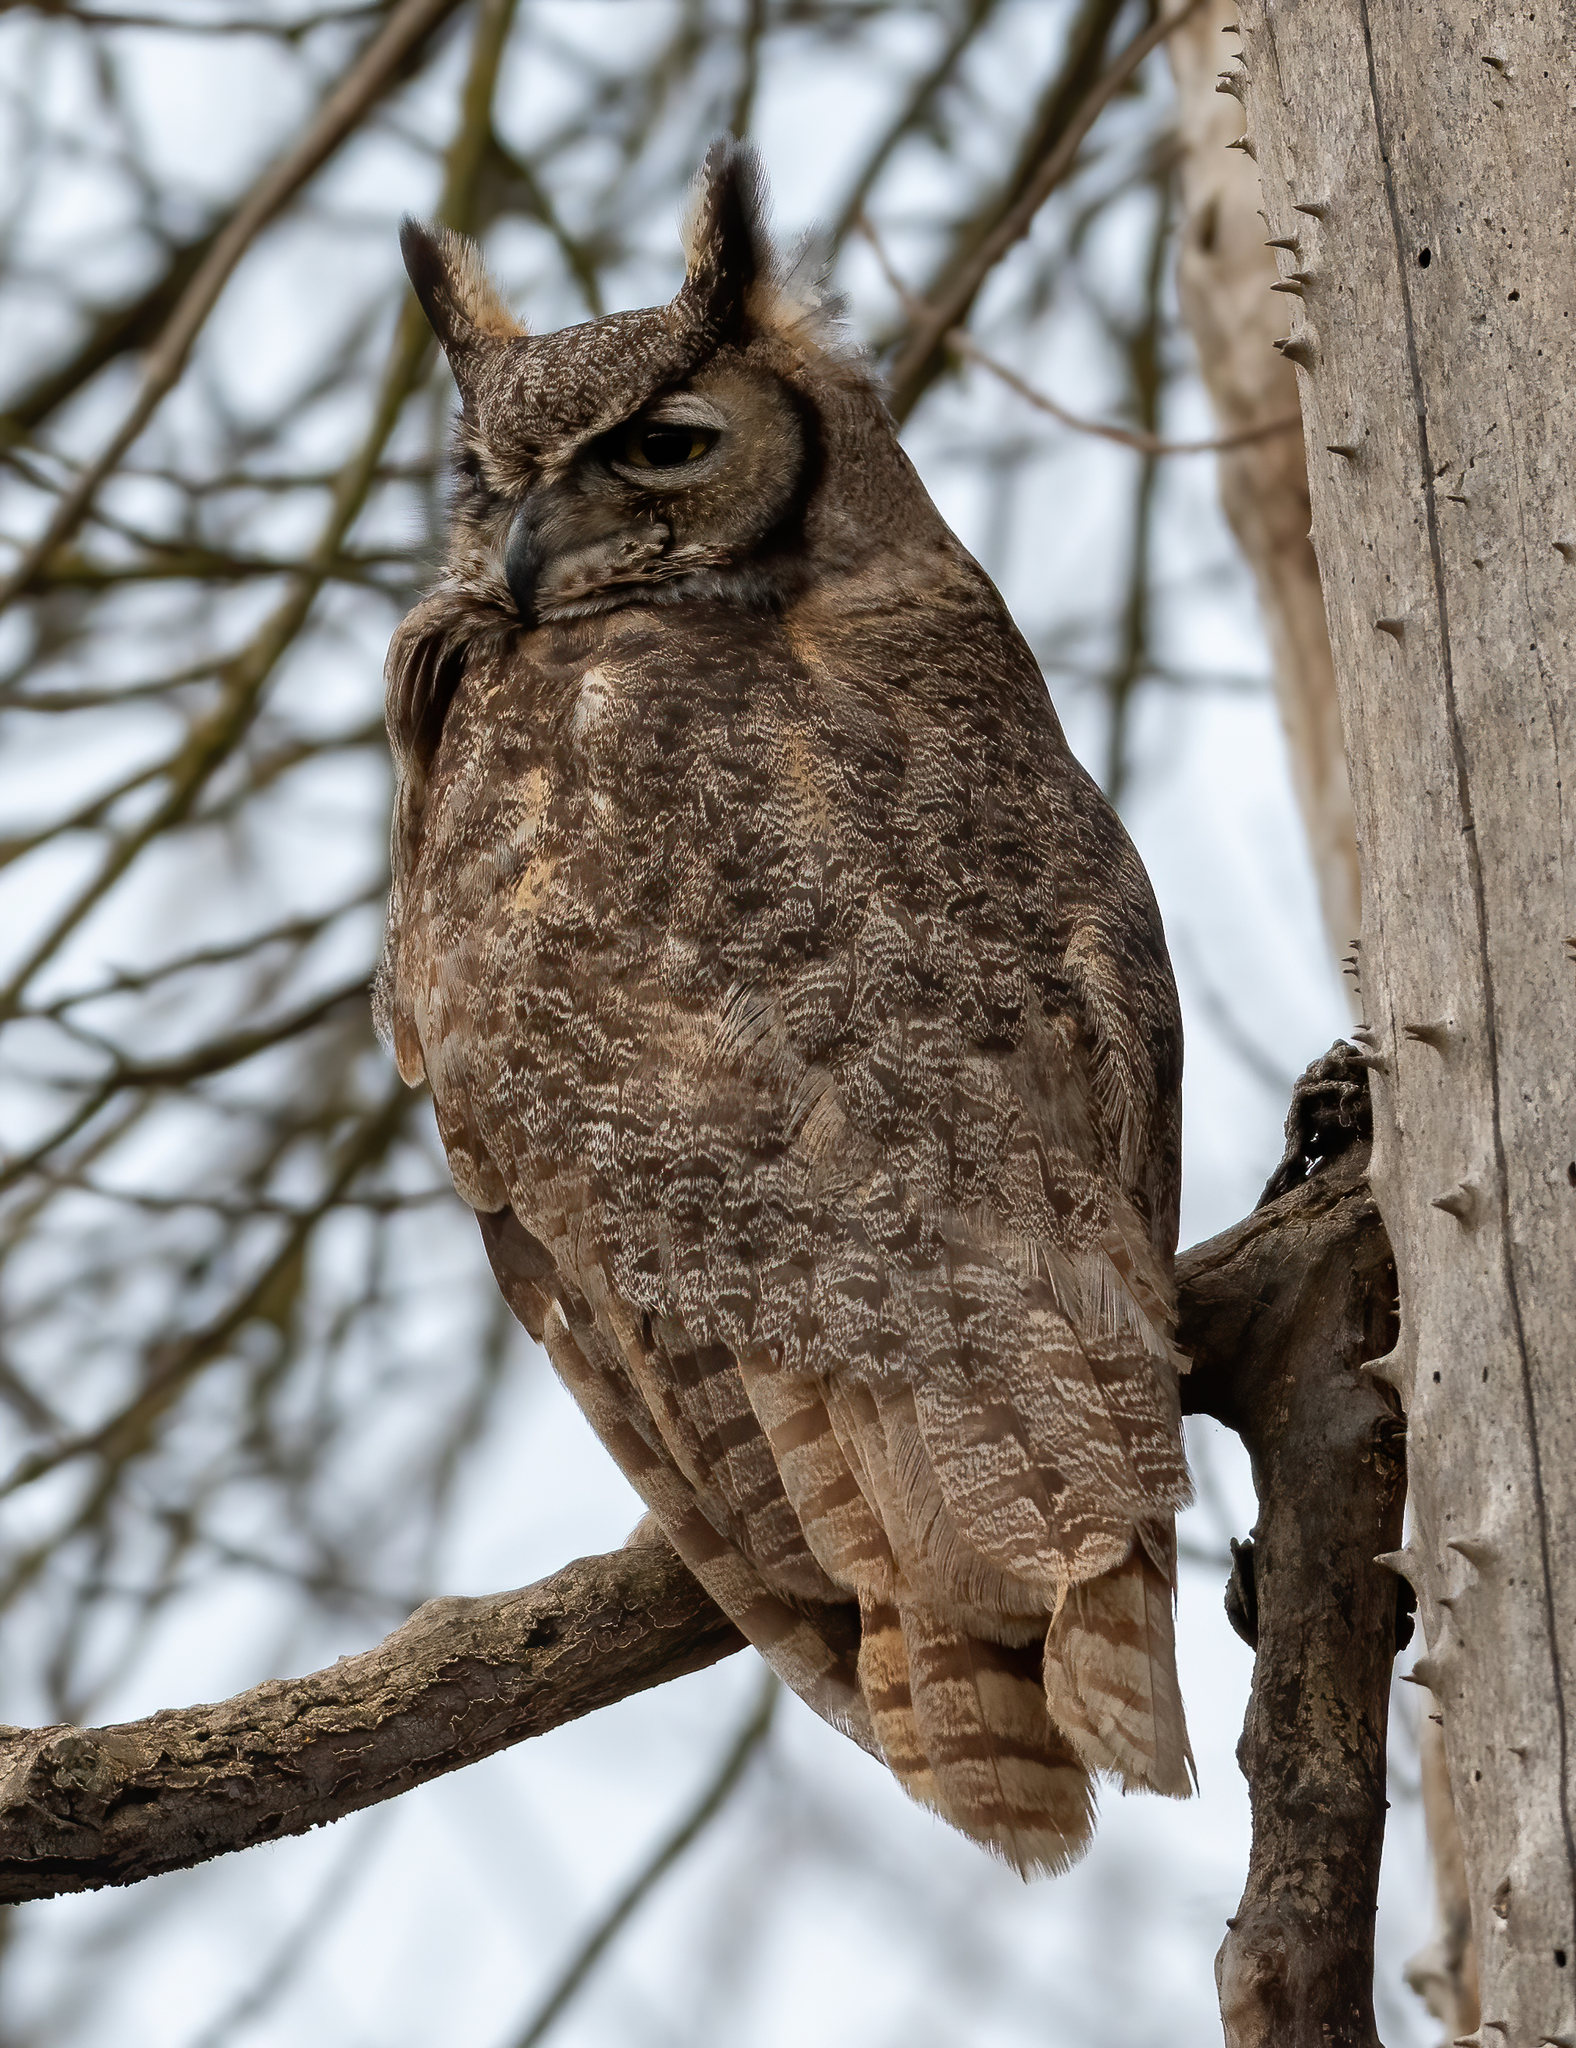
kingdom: Animalia
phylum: Chordata
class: Aves
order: Strigiformes
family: Strigidae
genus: Bubo
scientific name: Bubo virginianus
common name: Great horned owl
